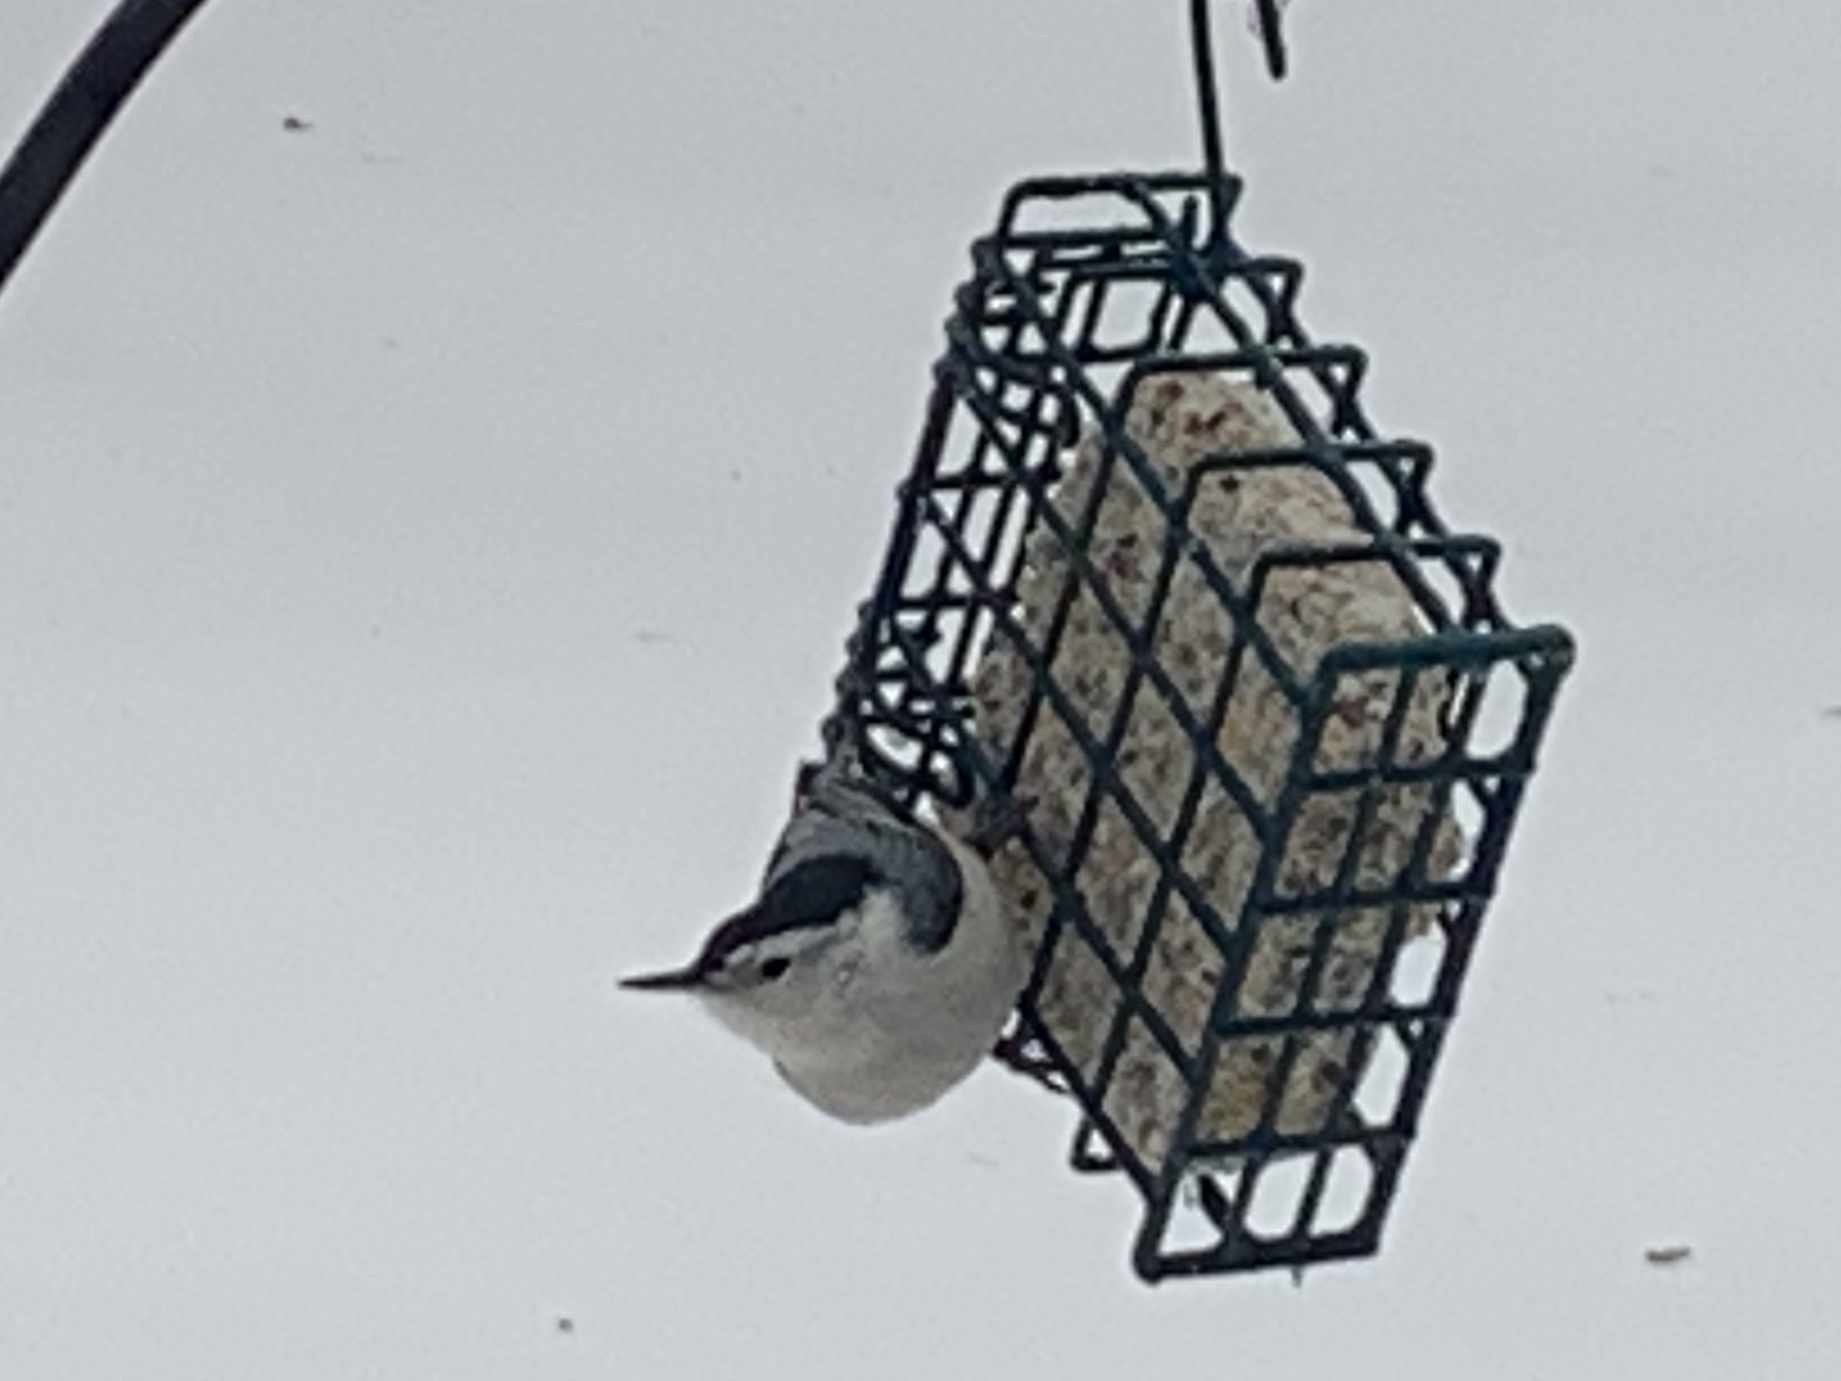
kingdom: Animalia
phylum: Chordata
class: Aves
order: Passeriformes
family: Sittidae
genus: Sitta
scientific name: Sitta carolinensis
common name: White-breasted nuthatch
